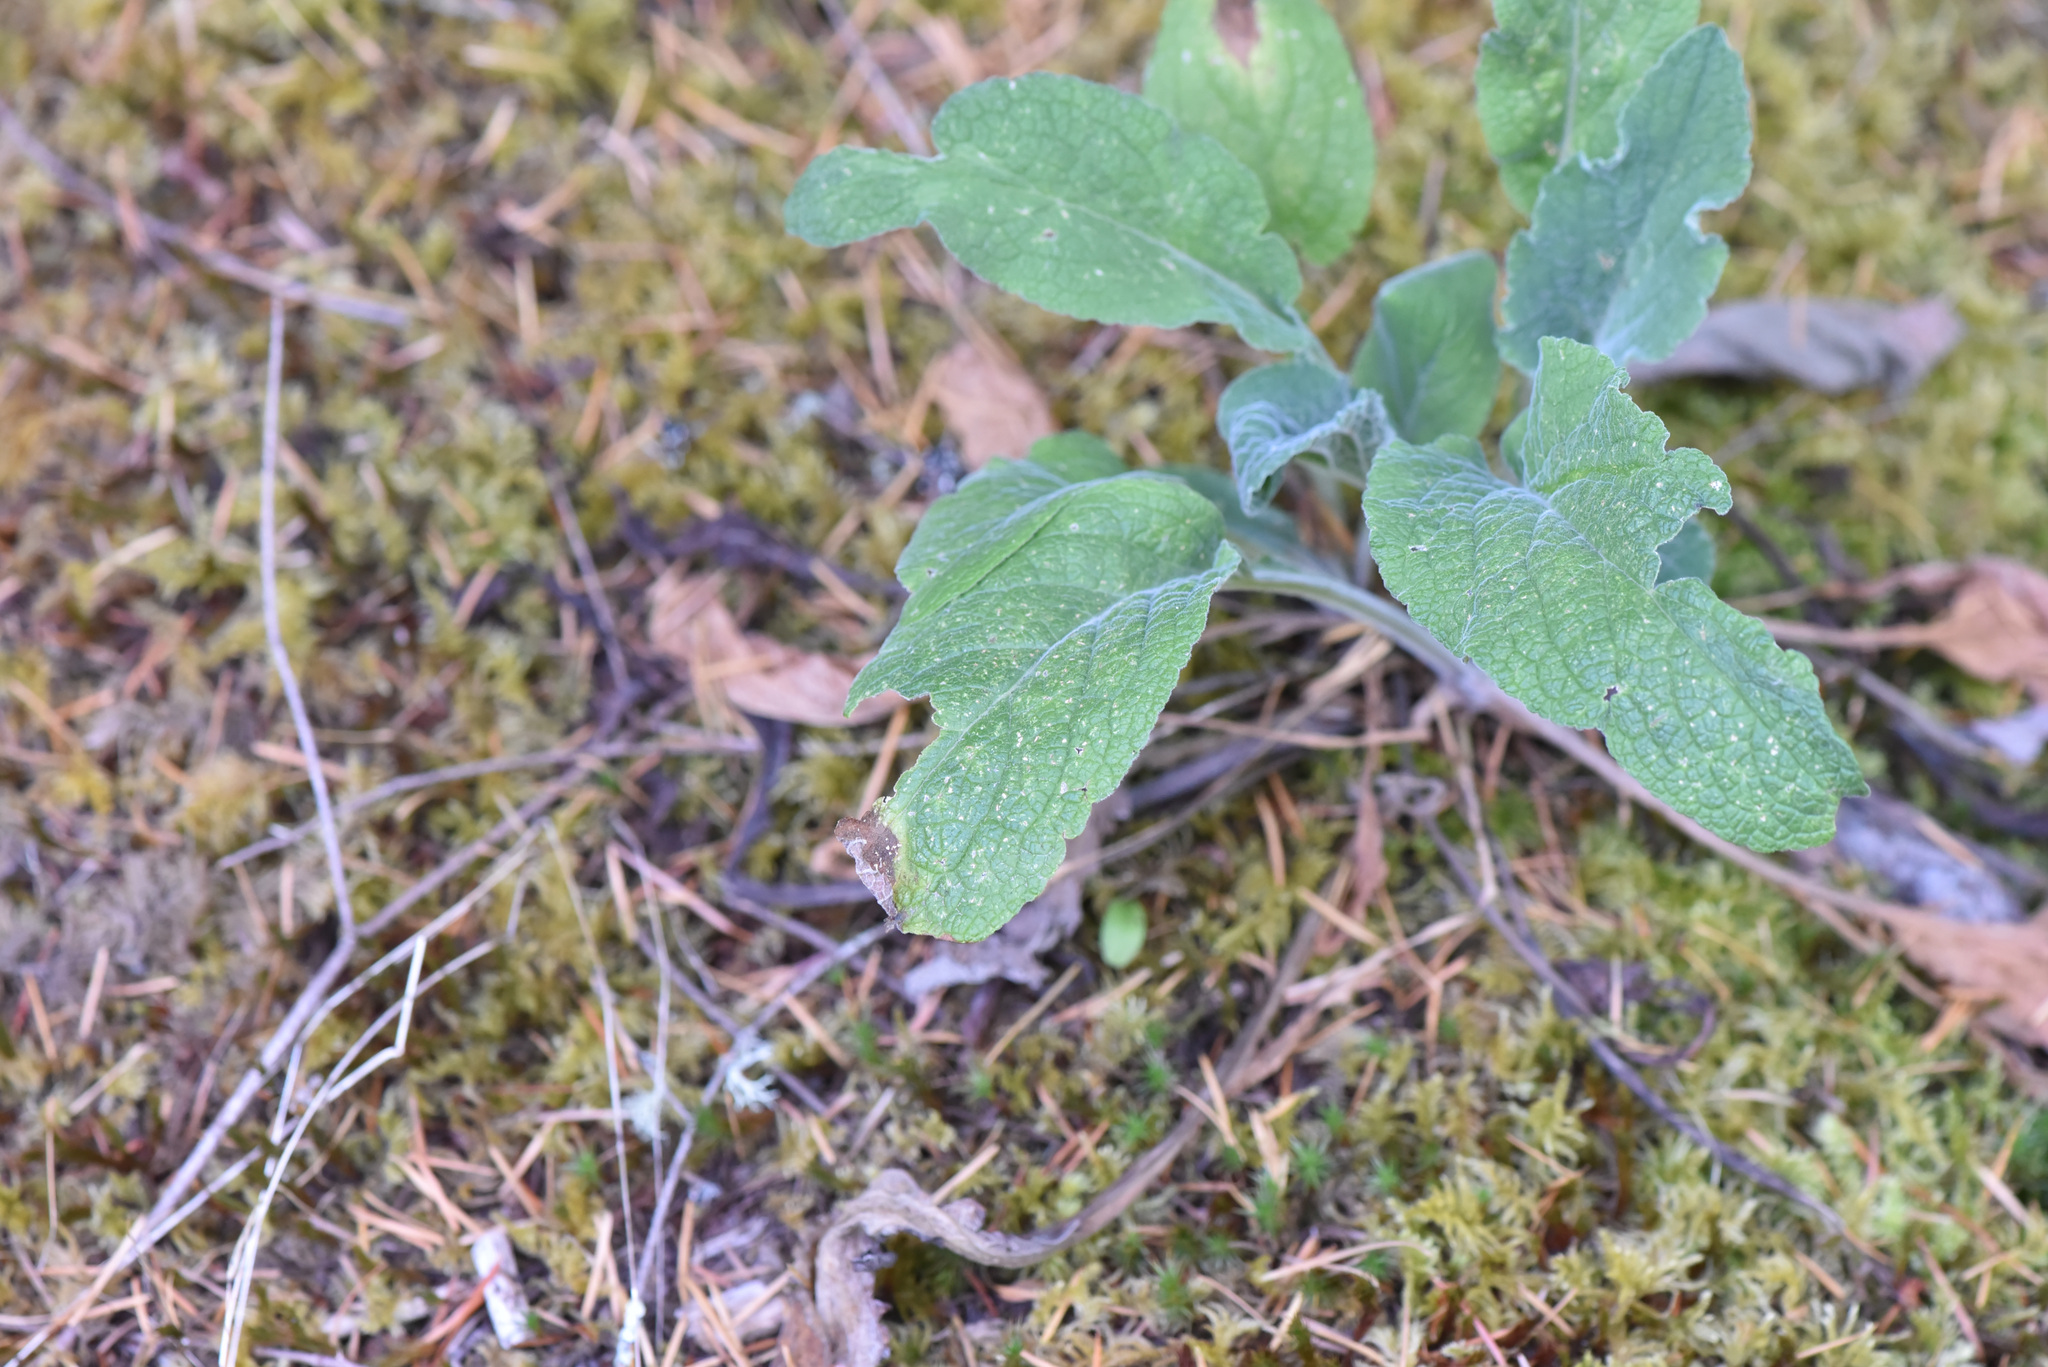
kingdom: Plantae
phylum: Tracheophyta
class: Magnoliopsida
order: Lamiales
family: Plantaginaceae
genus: Digitalis
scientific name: Digitalis purpurea
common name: Foxglove
